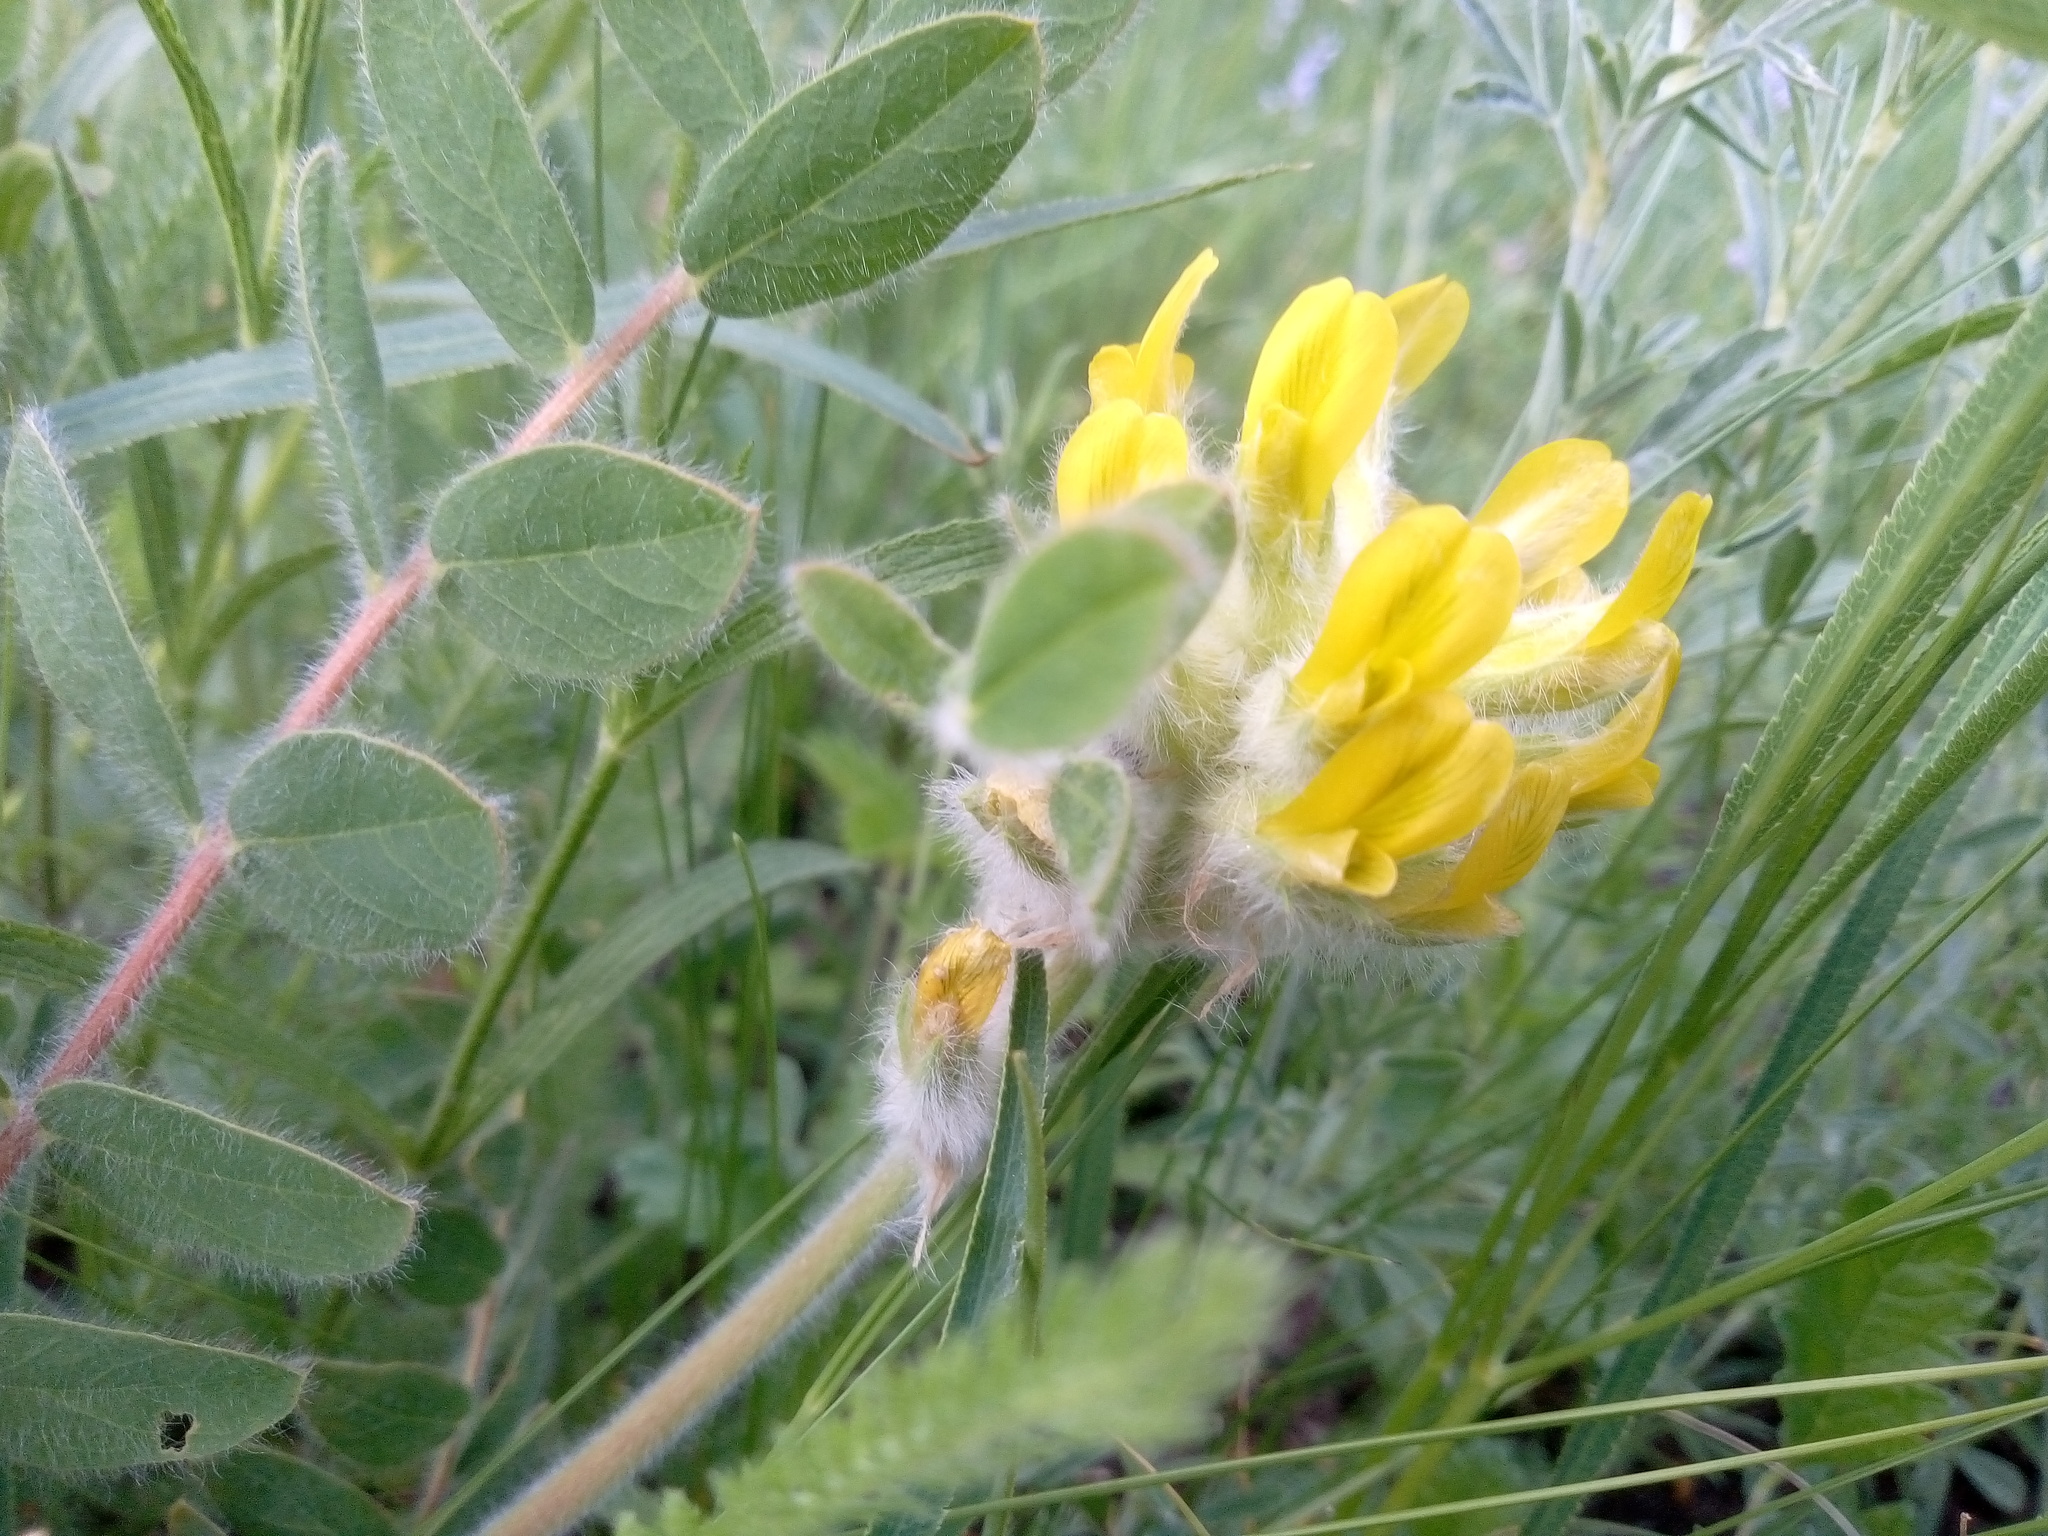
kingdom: Plantae
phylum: Tracheophyta
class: Magnoliopsida
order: Fabales
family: Fabaceae
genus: Astragalus
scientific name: Astragalus dasyanthus
